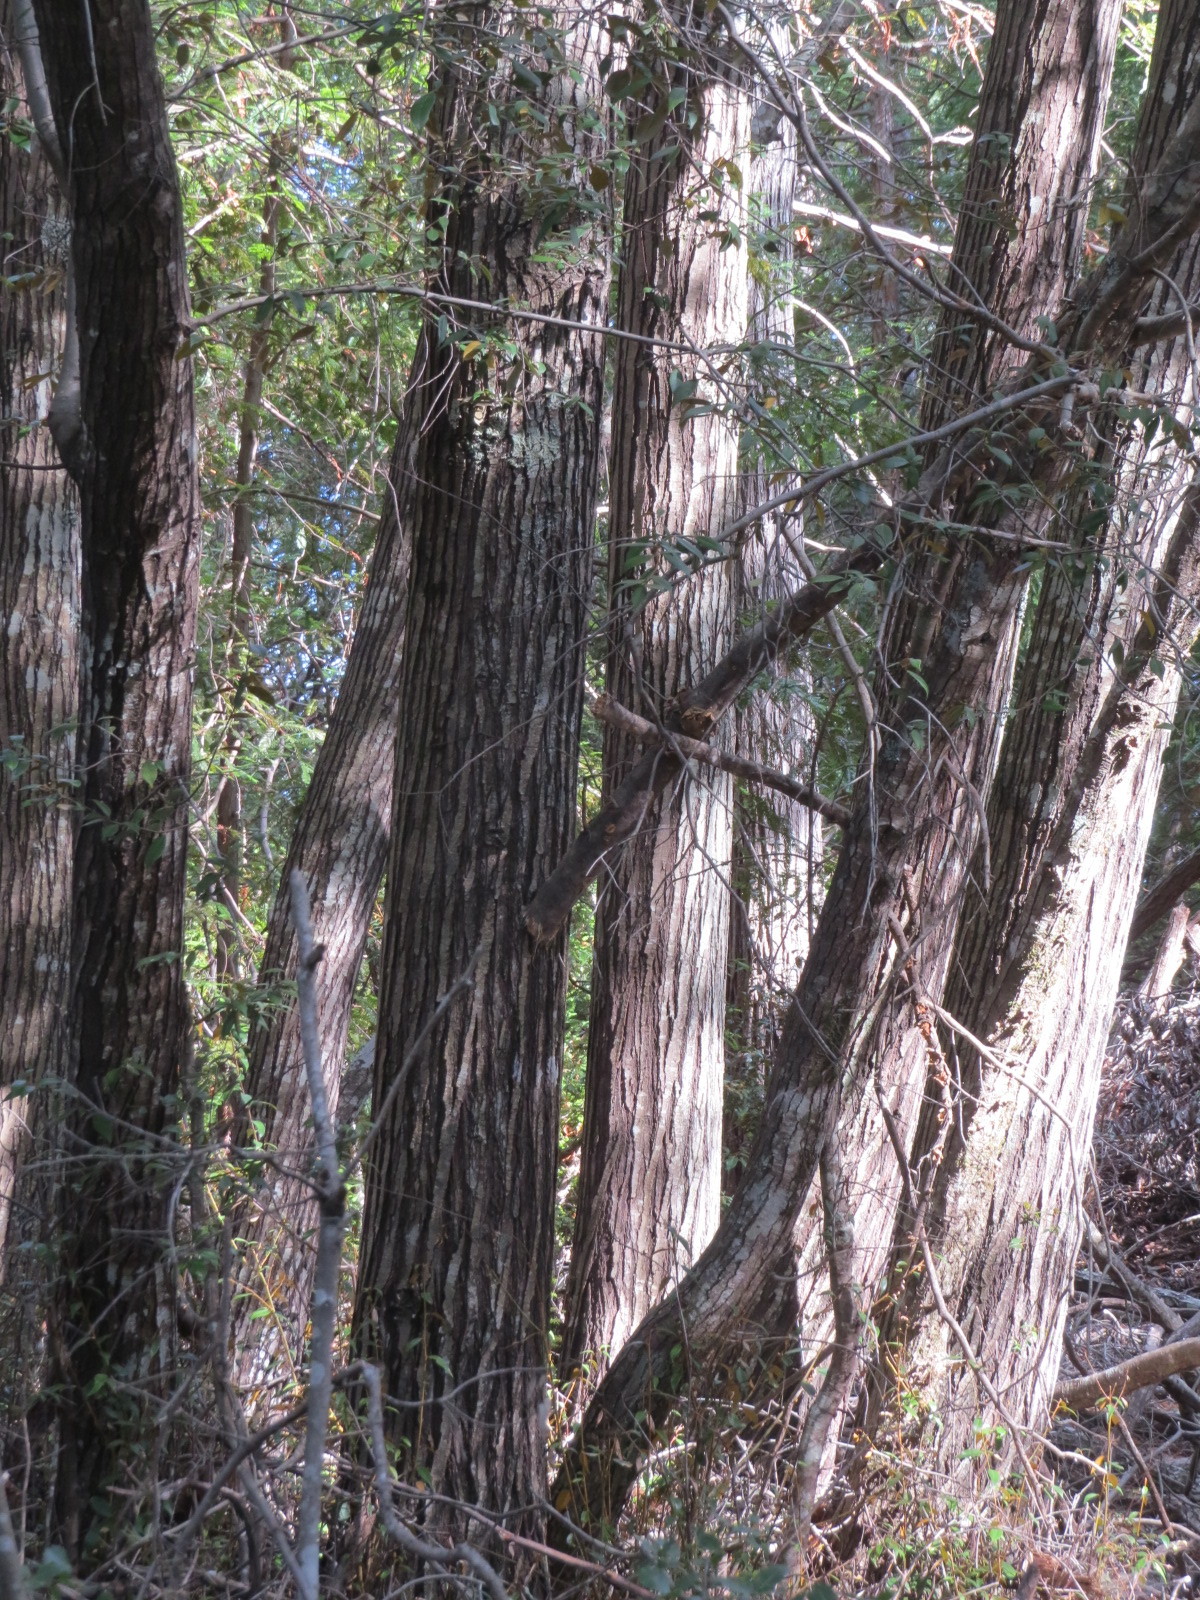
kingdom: Plantae
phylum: Tracheophyta
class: Magnoliopsida
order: Fagales
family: Fagaceae
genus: Chrysolepis
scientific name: Chrysolepis chrysophylla
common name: Giant chinquapin
